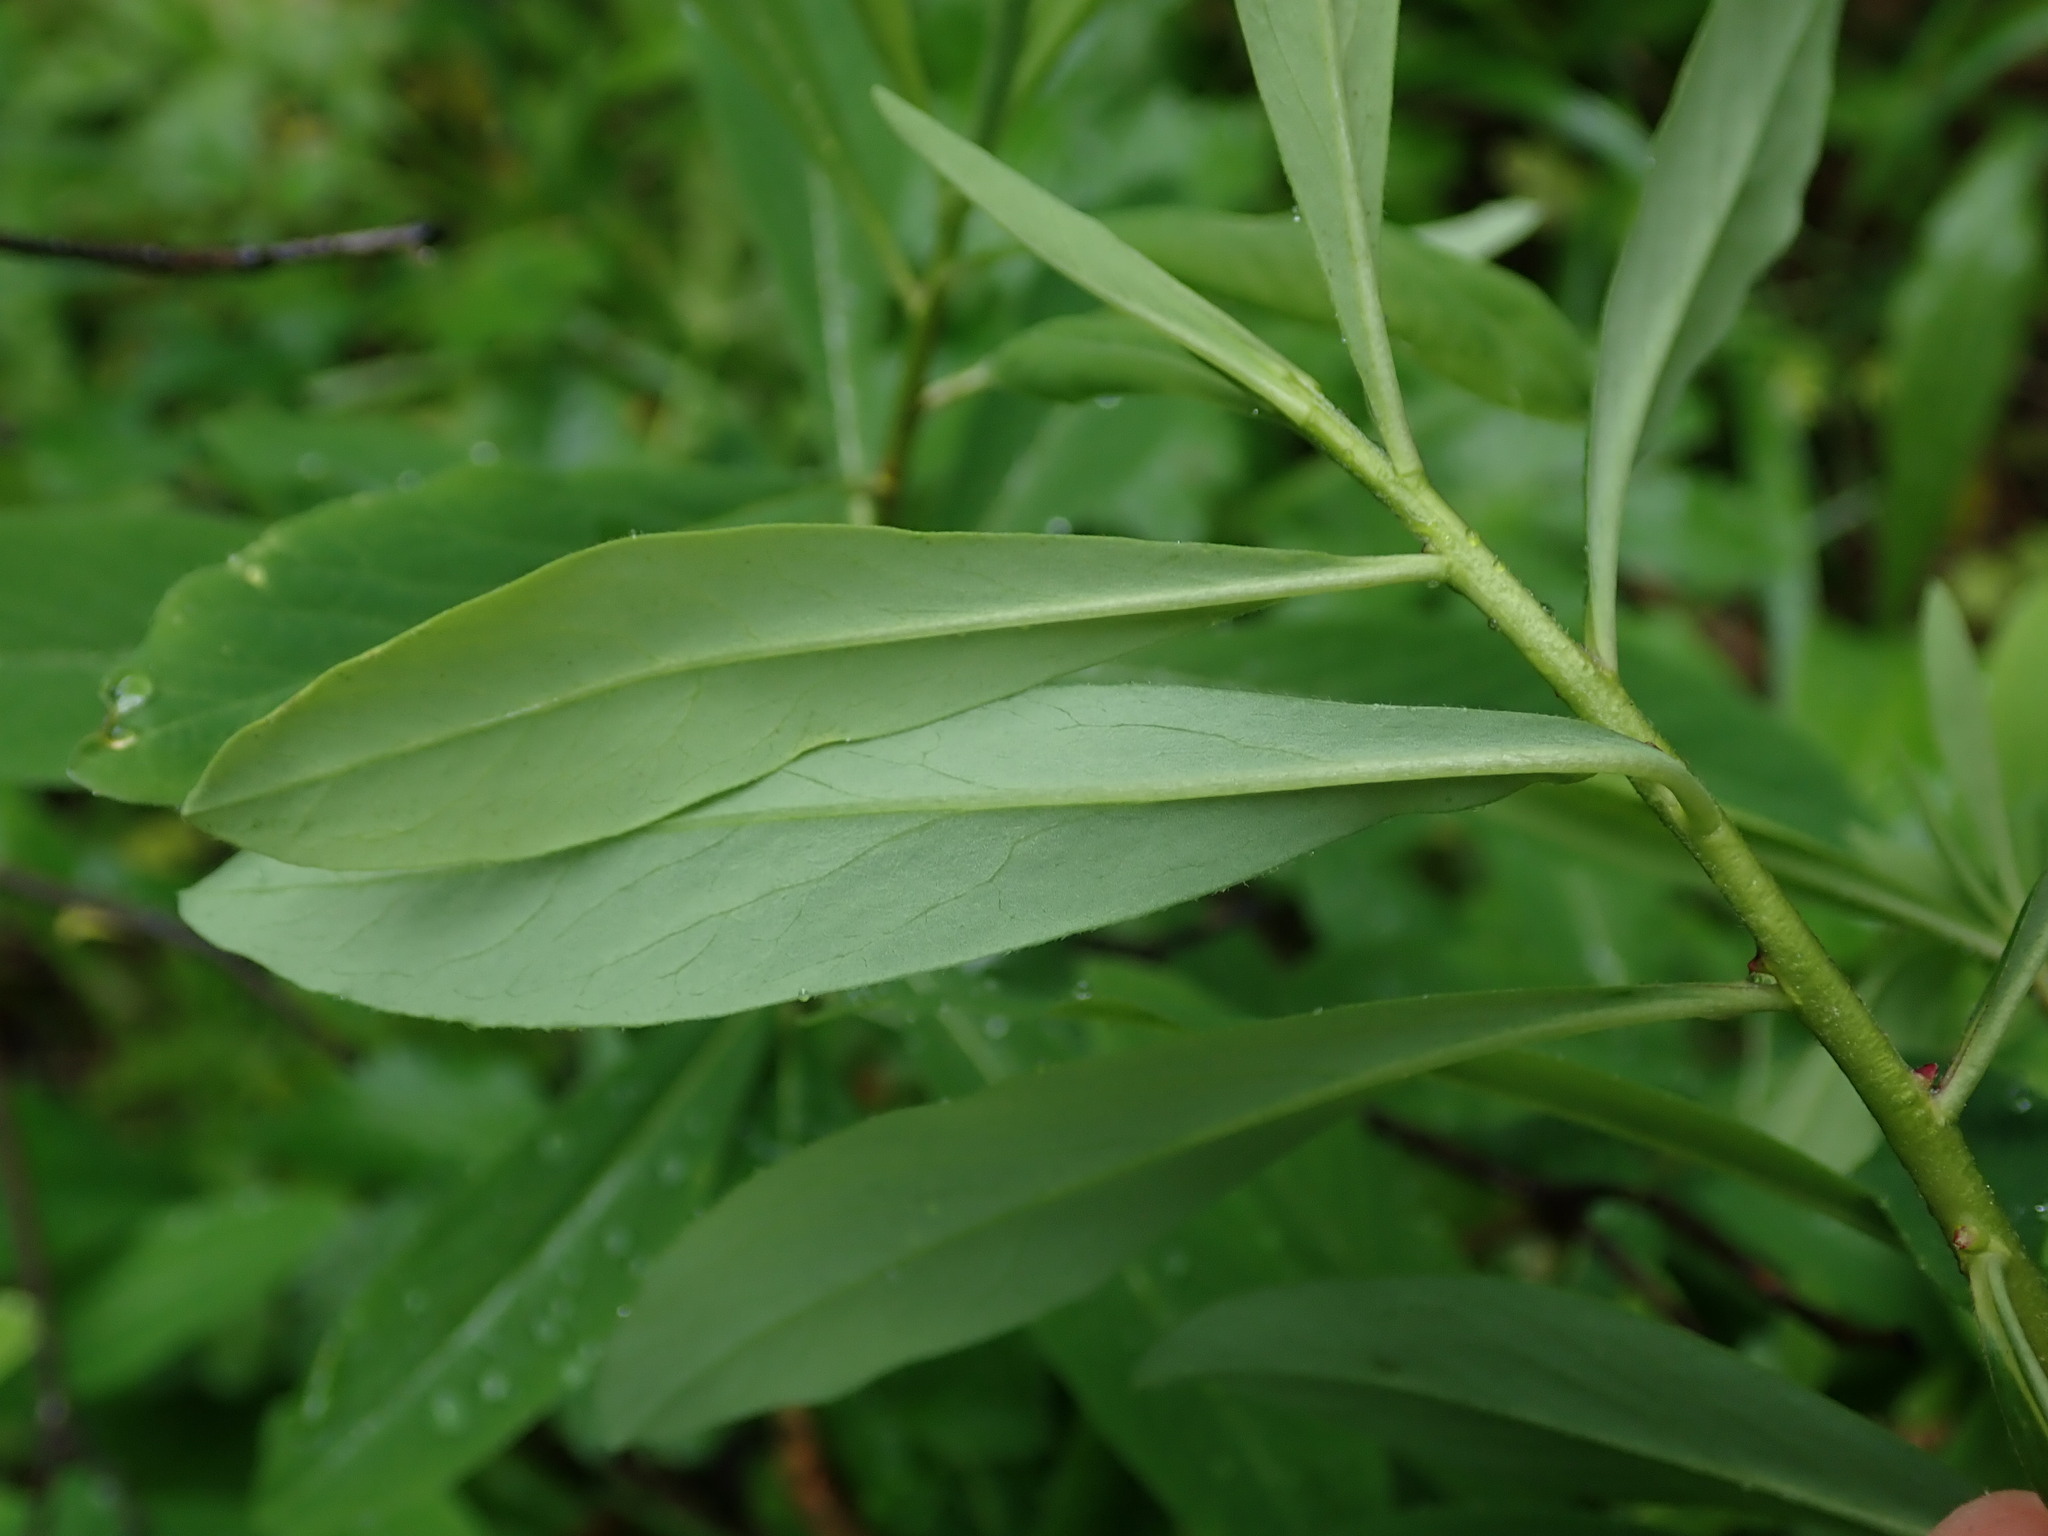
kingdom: Plantae
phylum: Tracheophyta
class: Magnoliopsida
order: Malvales
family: Thymelaeaceae
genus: Daphne
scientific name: Daphne mezereum
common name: Mezereon
